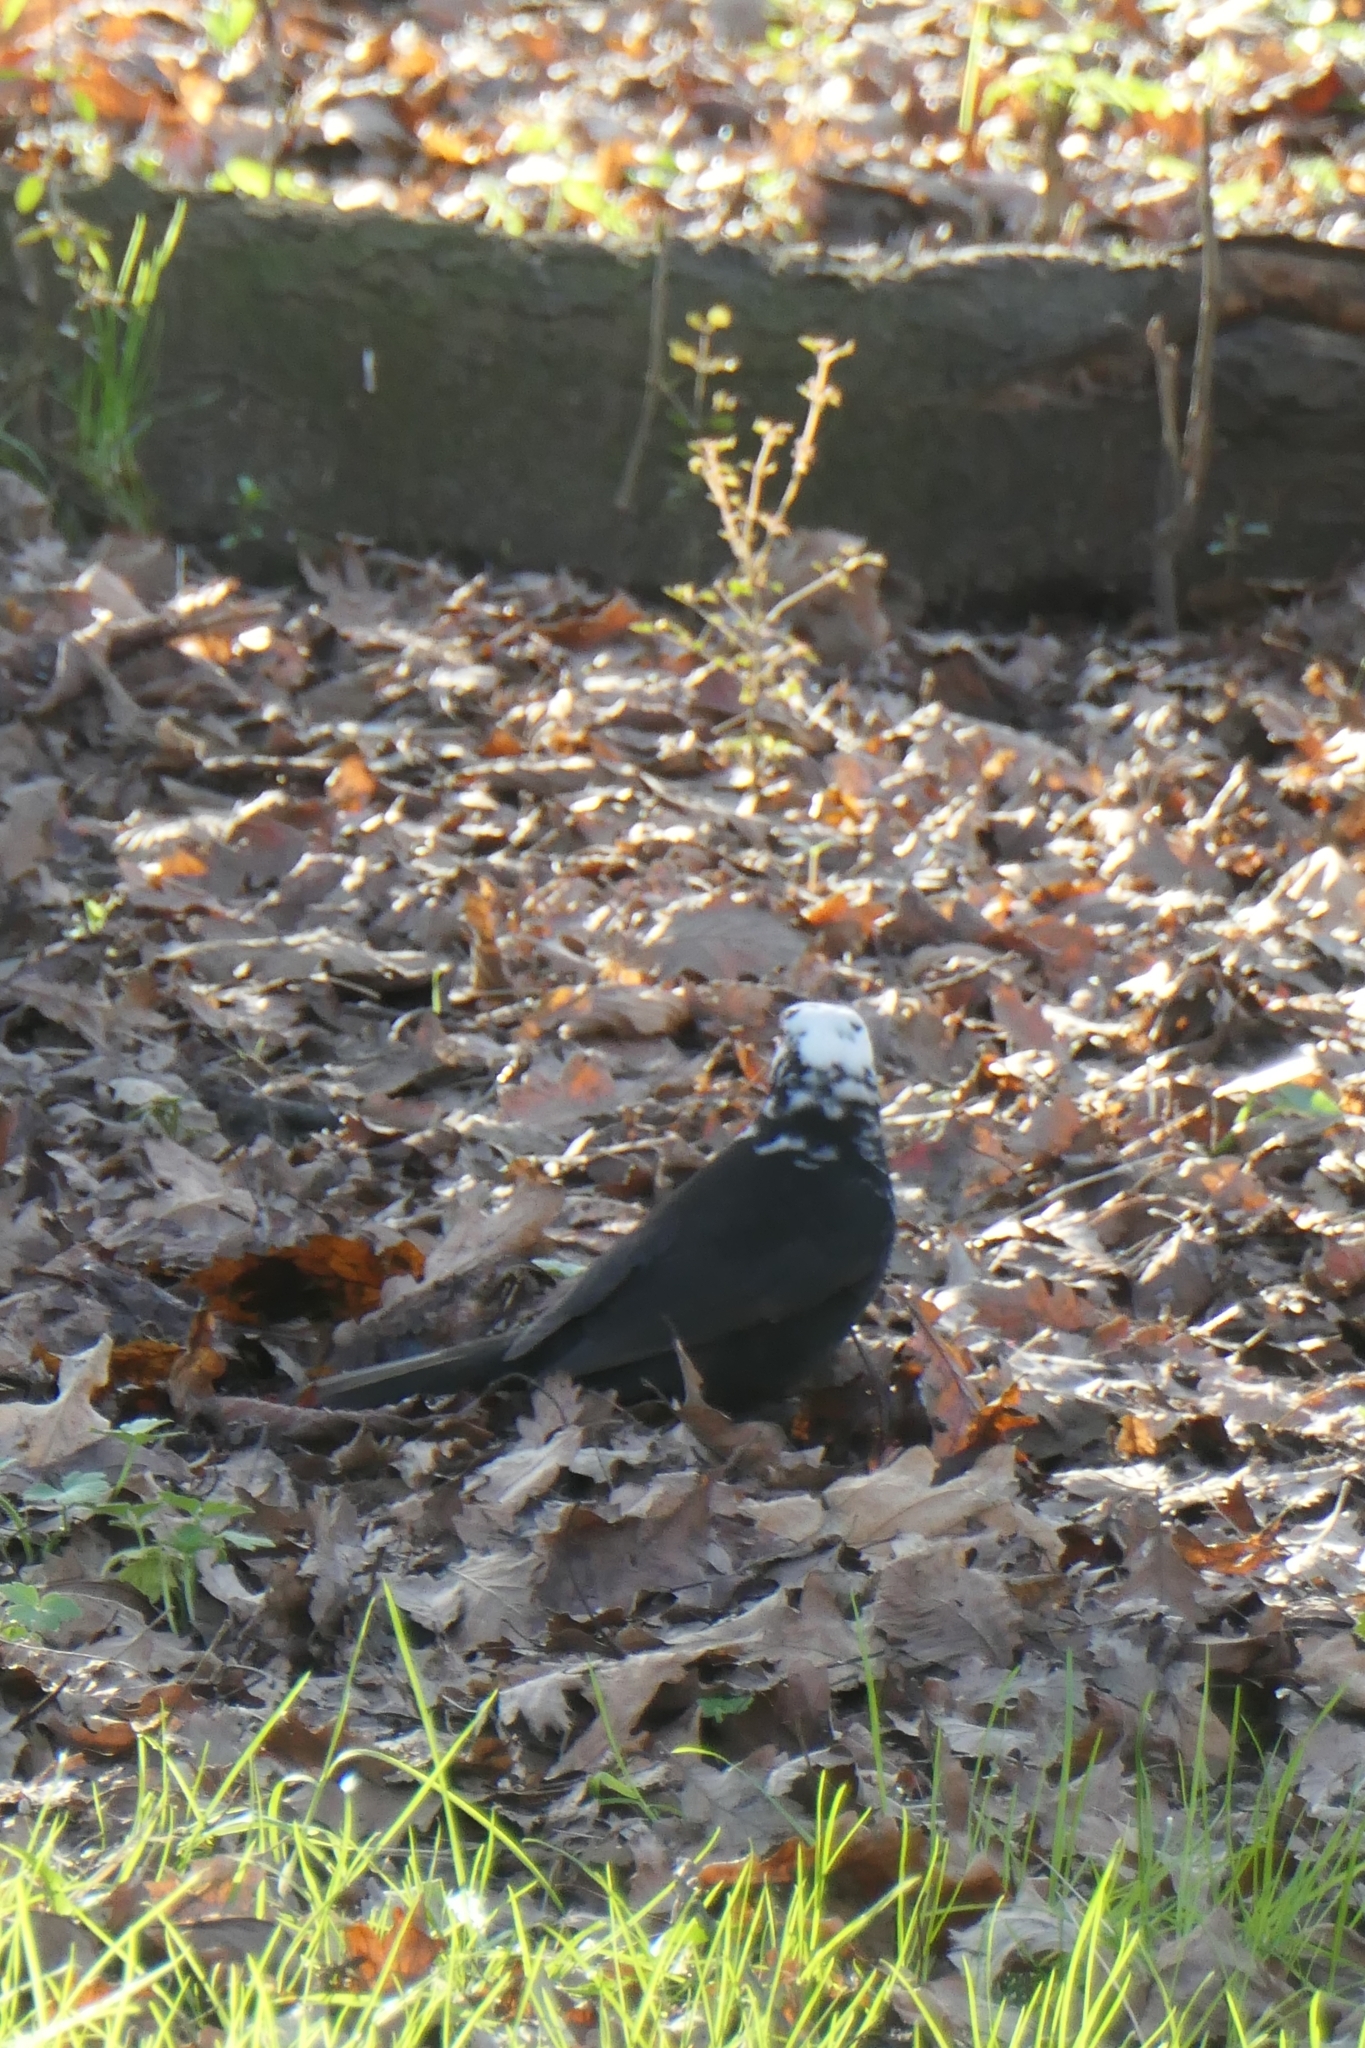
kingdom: Animalia
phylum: Chordata
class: Aves
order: Passeriformes
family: Turdidae
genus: Turdus
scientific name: Turdus merula
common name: Common blackbird
